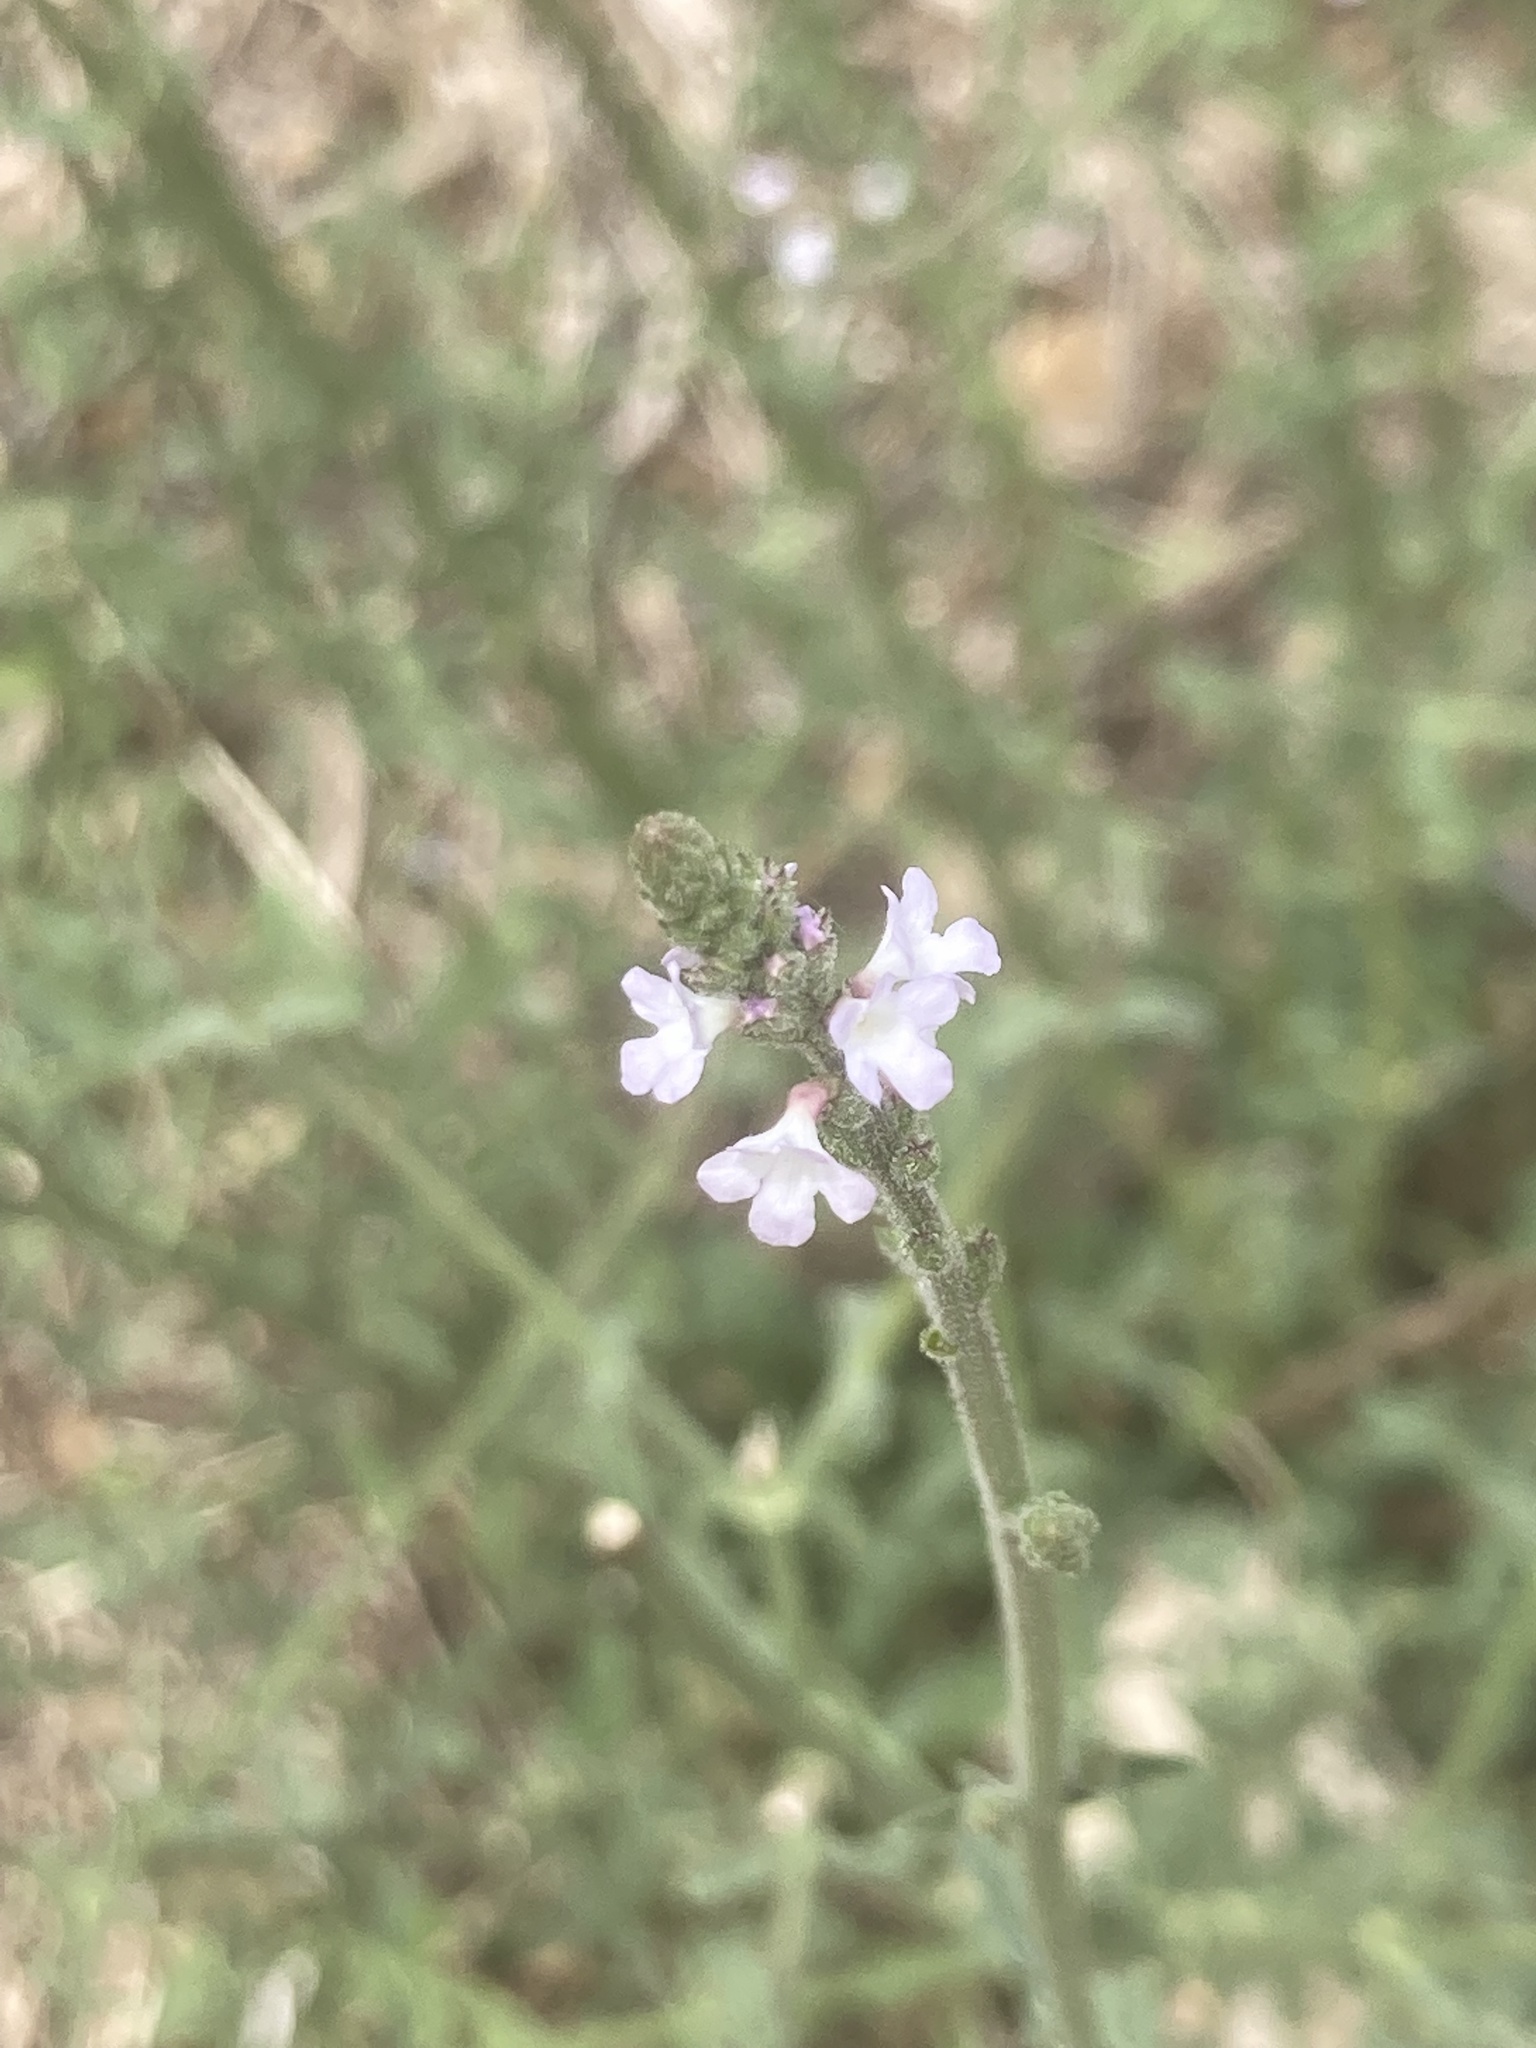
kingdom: Plantae
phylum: Tracheophyta
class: Magnoliopsida
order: Lamiales
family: Verbenaceae
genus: Verbena
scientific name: Verbena officinalis
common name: Vervain
